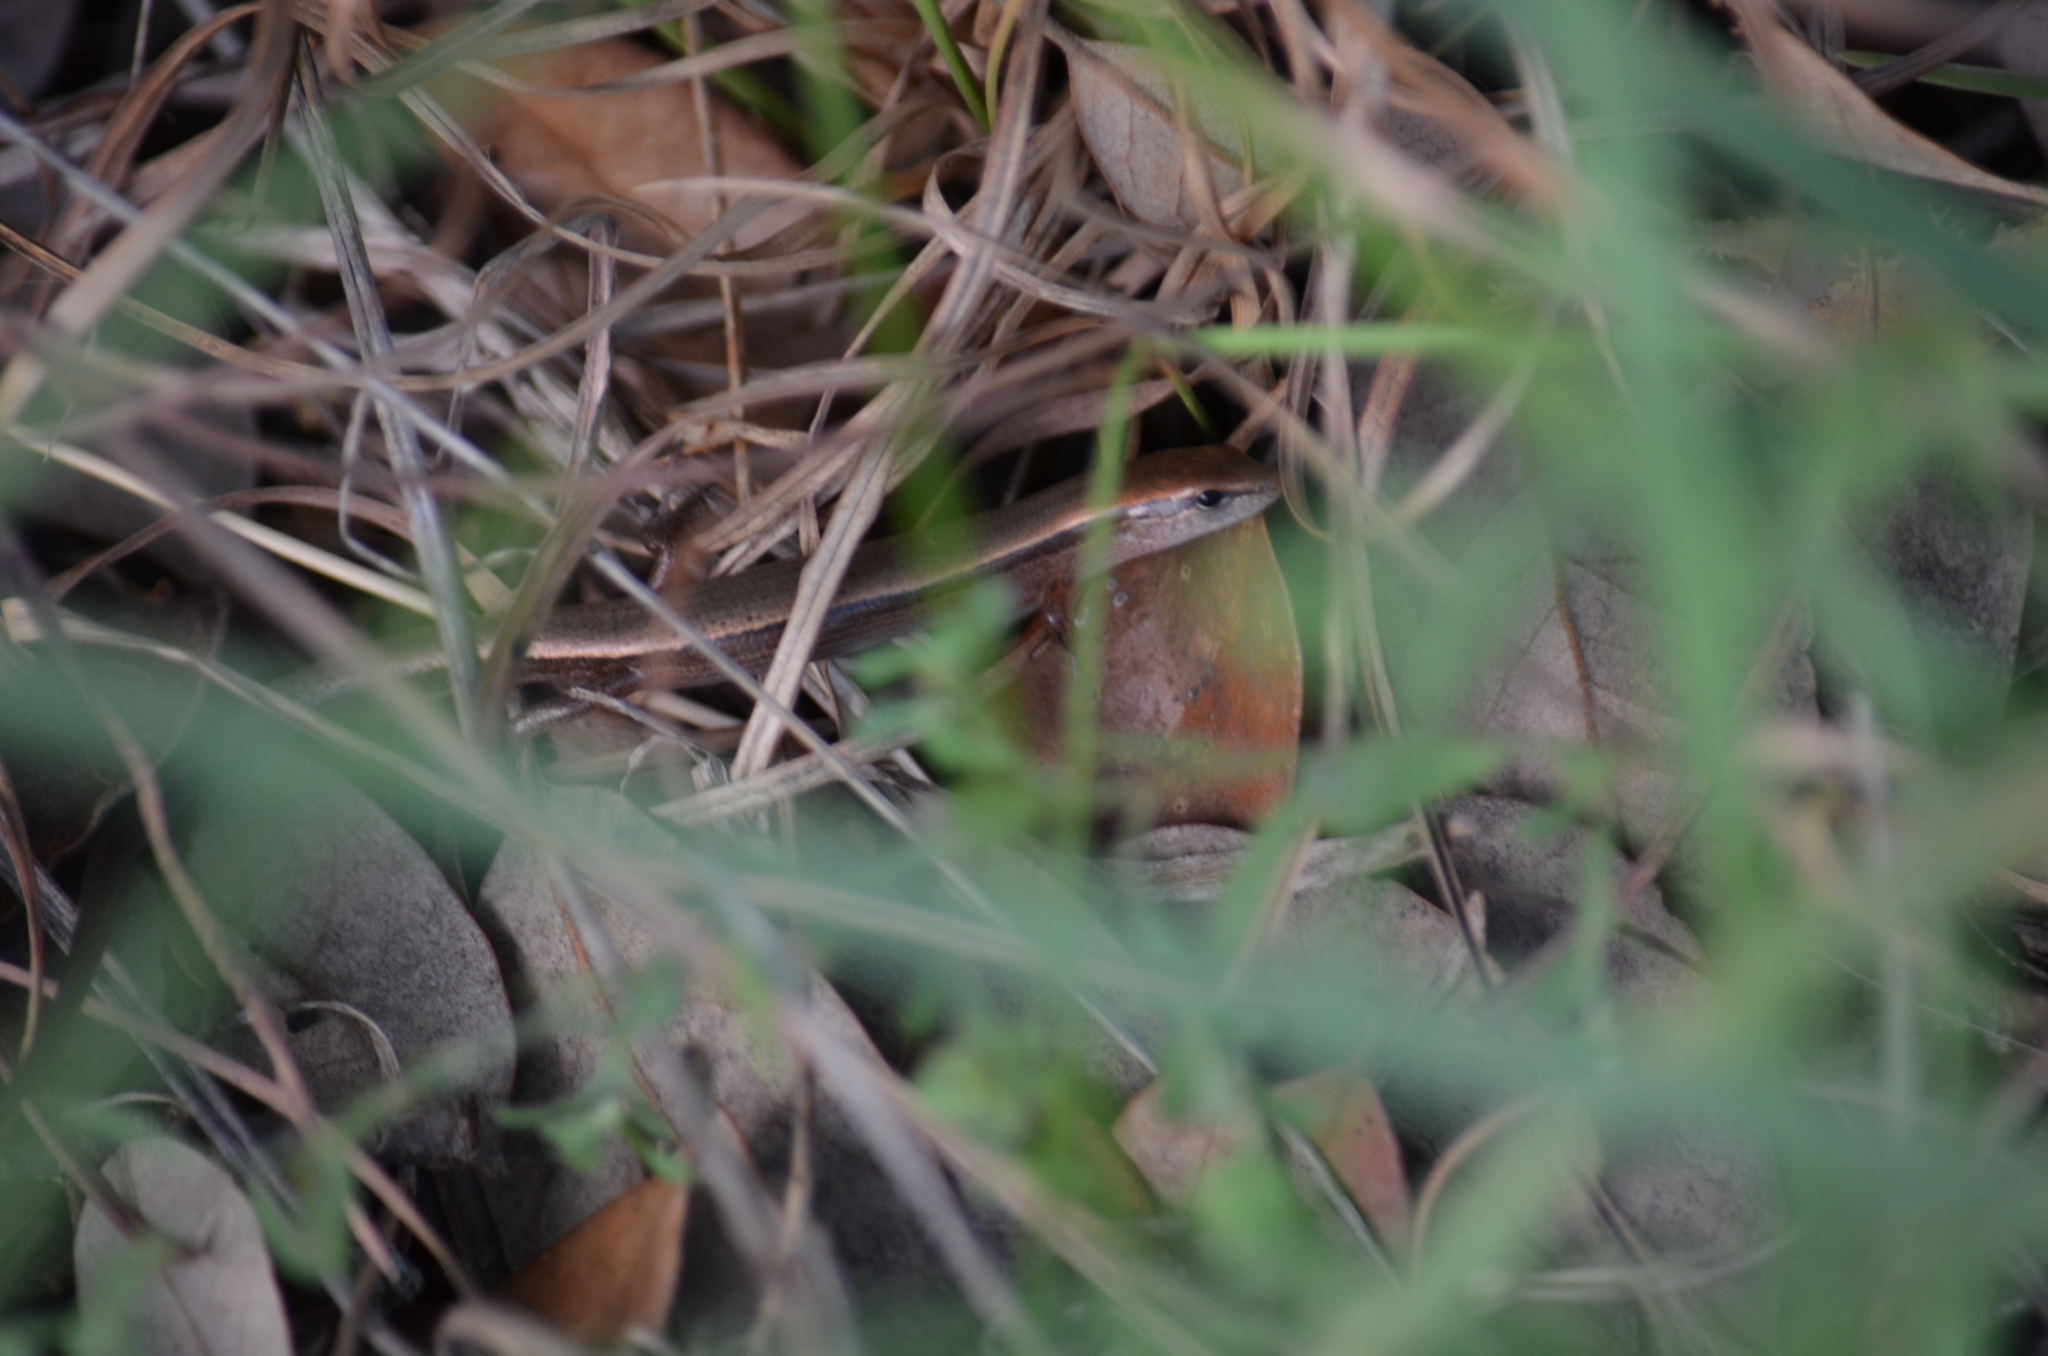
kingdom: Animalia
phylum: Chordata
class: Squamata
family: Scincidae
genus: Scincella
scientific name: Scincella lateralis
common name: Ground skink
